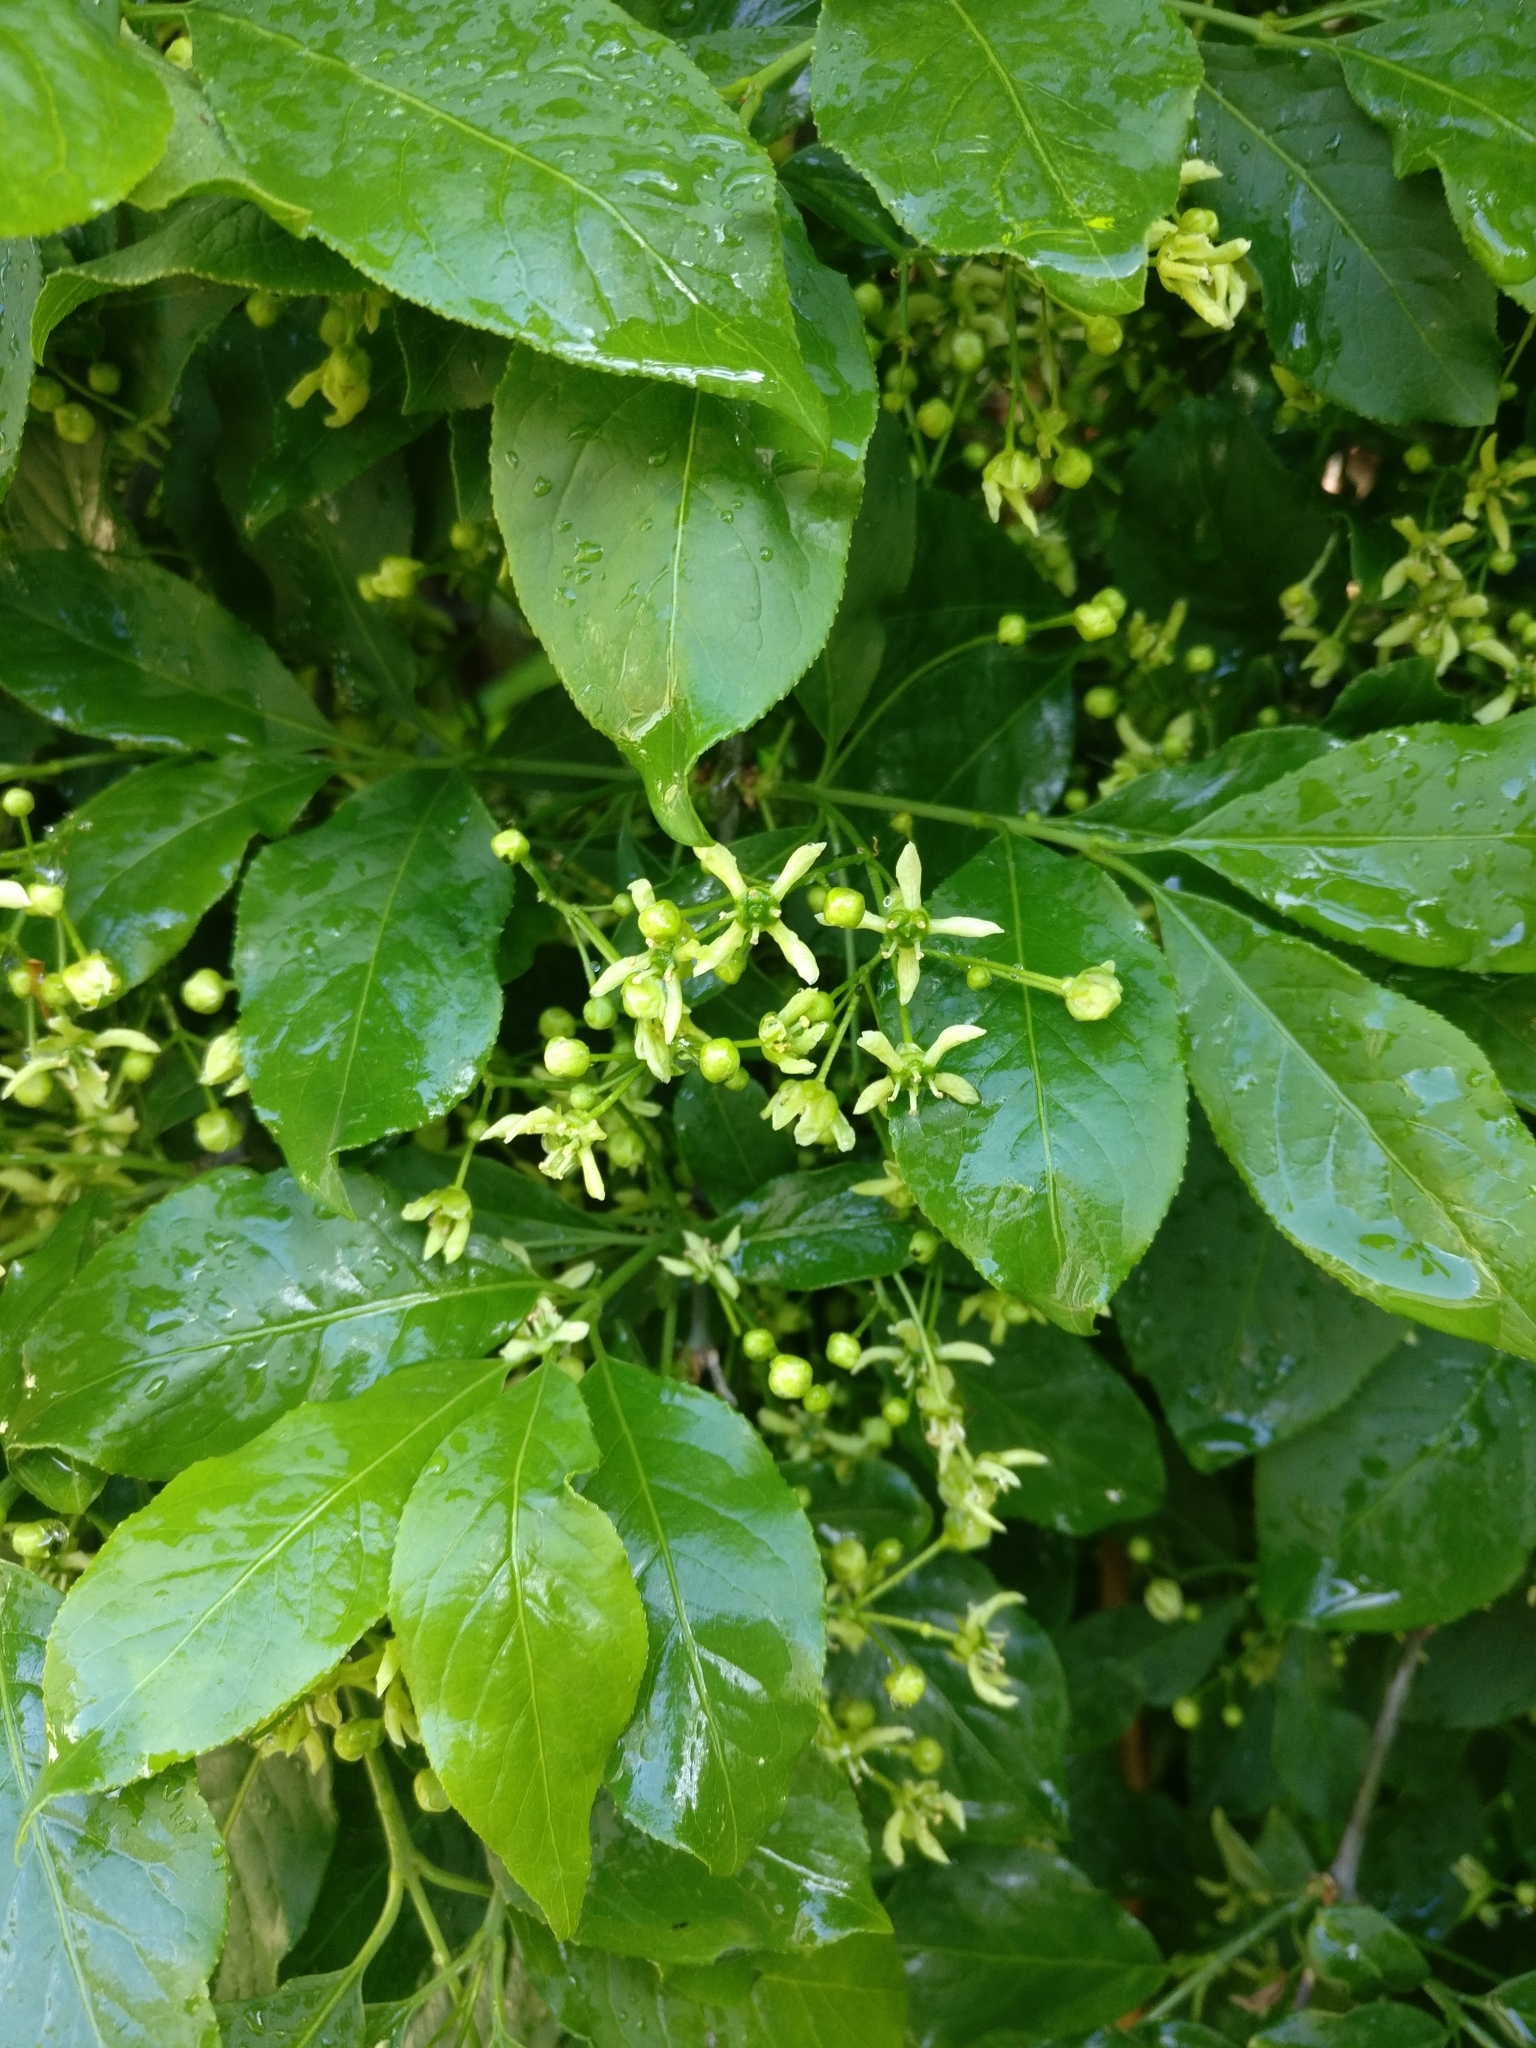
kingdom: Plantae
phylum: Tracheophyta
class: Magnoliopsida
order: Celastrales
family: Celastraceae
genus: Euonymus
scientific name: Euonymus europaeus
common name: Spindle
